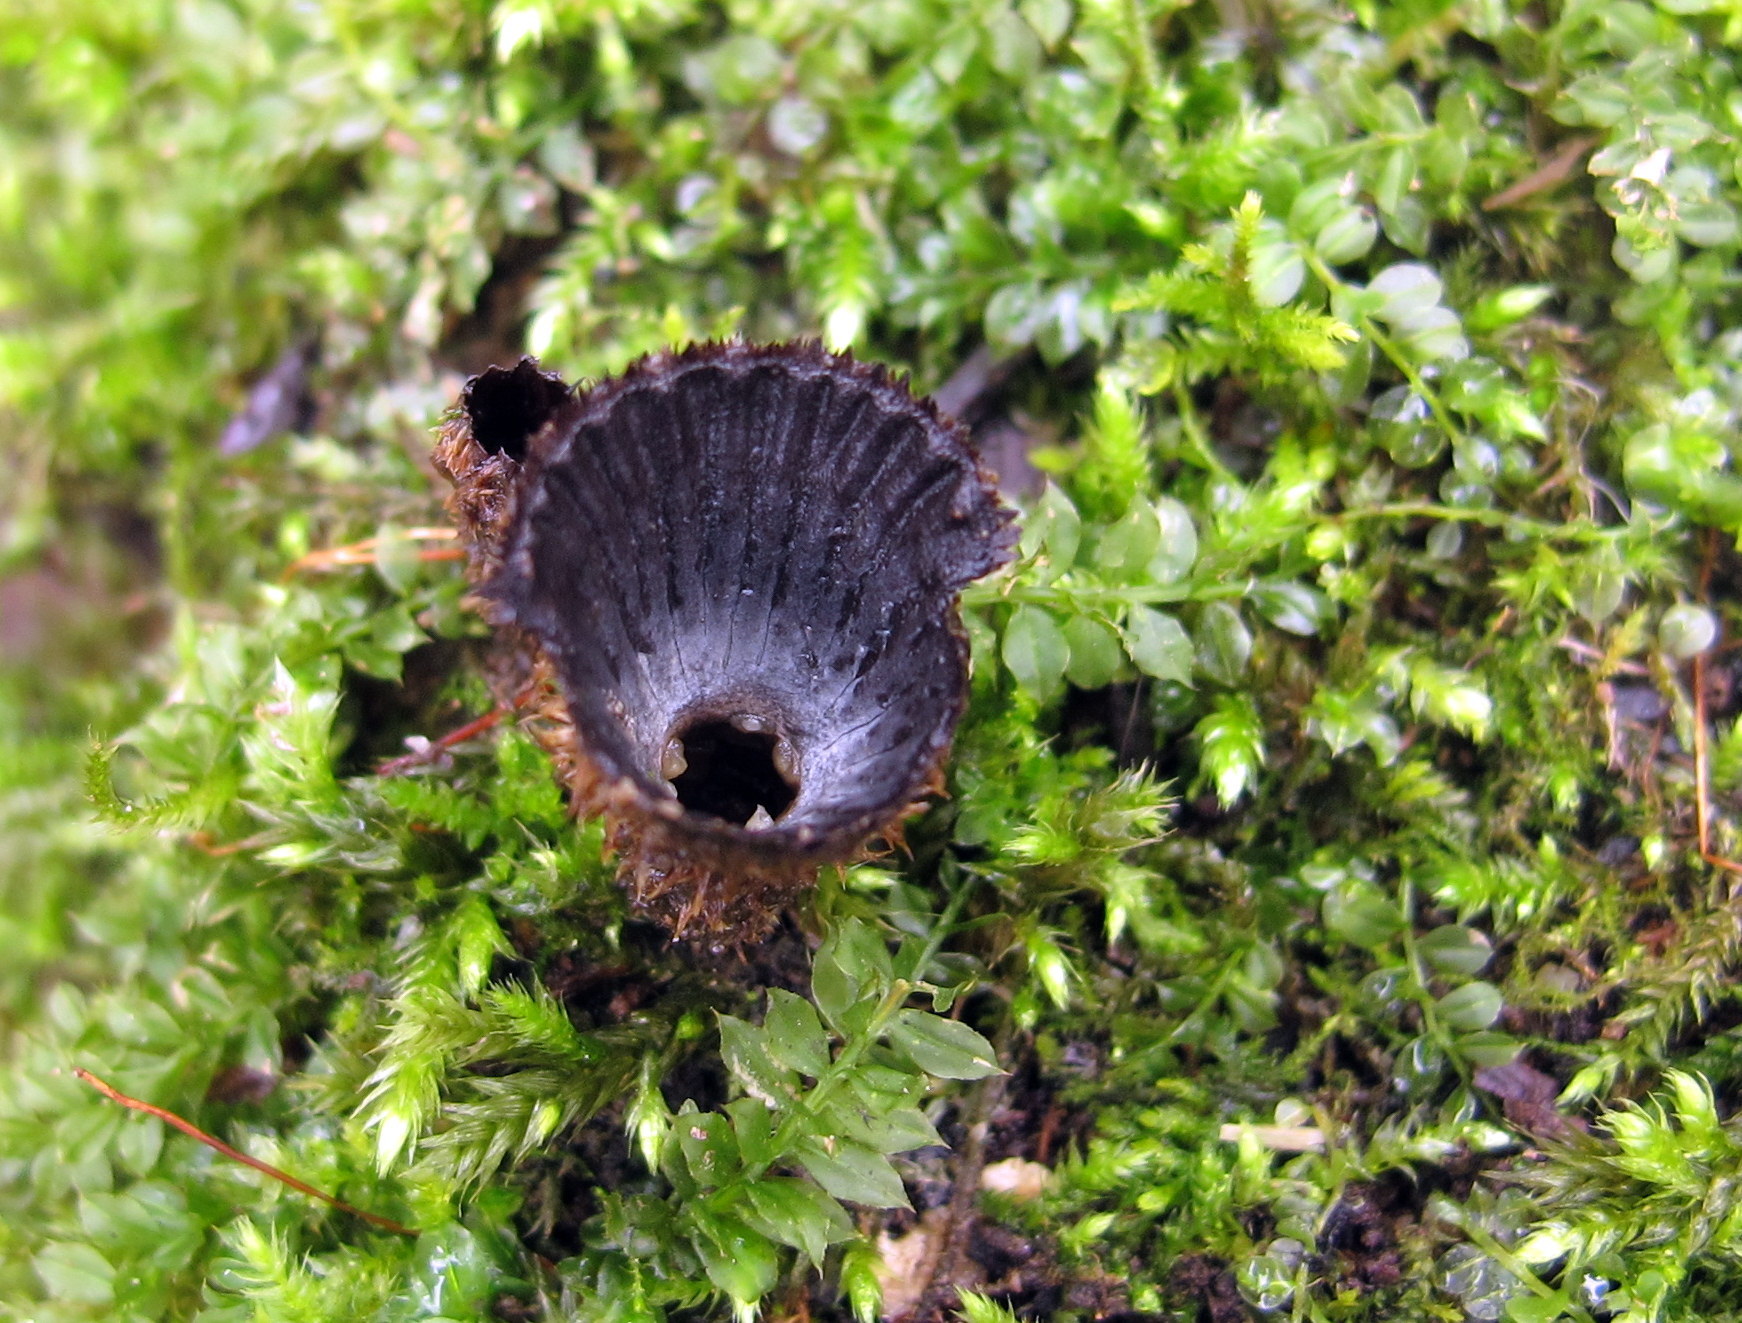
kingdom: Fungi
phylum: Basidiomycota
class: Agaricomycetes
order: Agaricales
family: Agaricaceae
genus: Cyathus
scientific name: Cyathus striatus
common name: Fluted bird's nest
